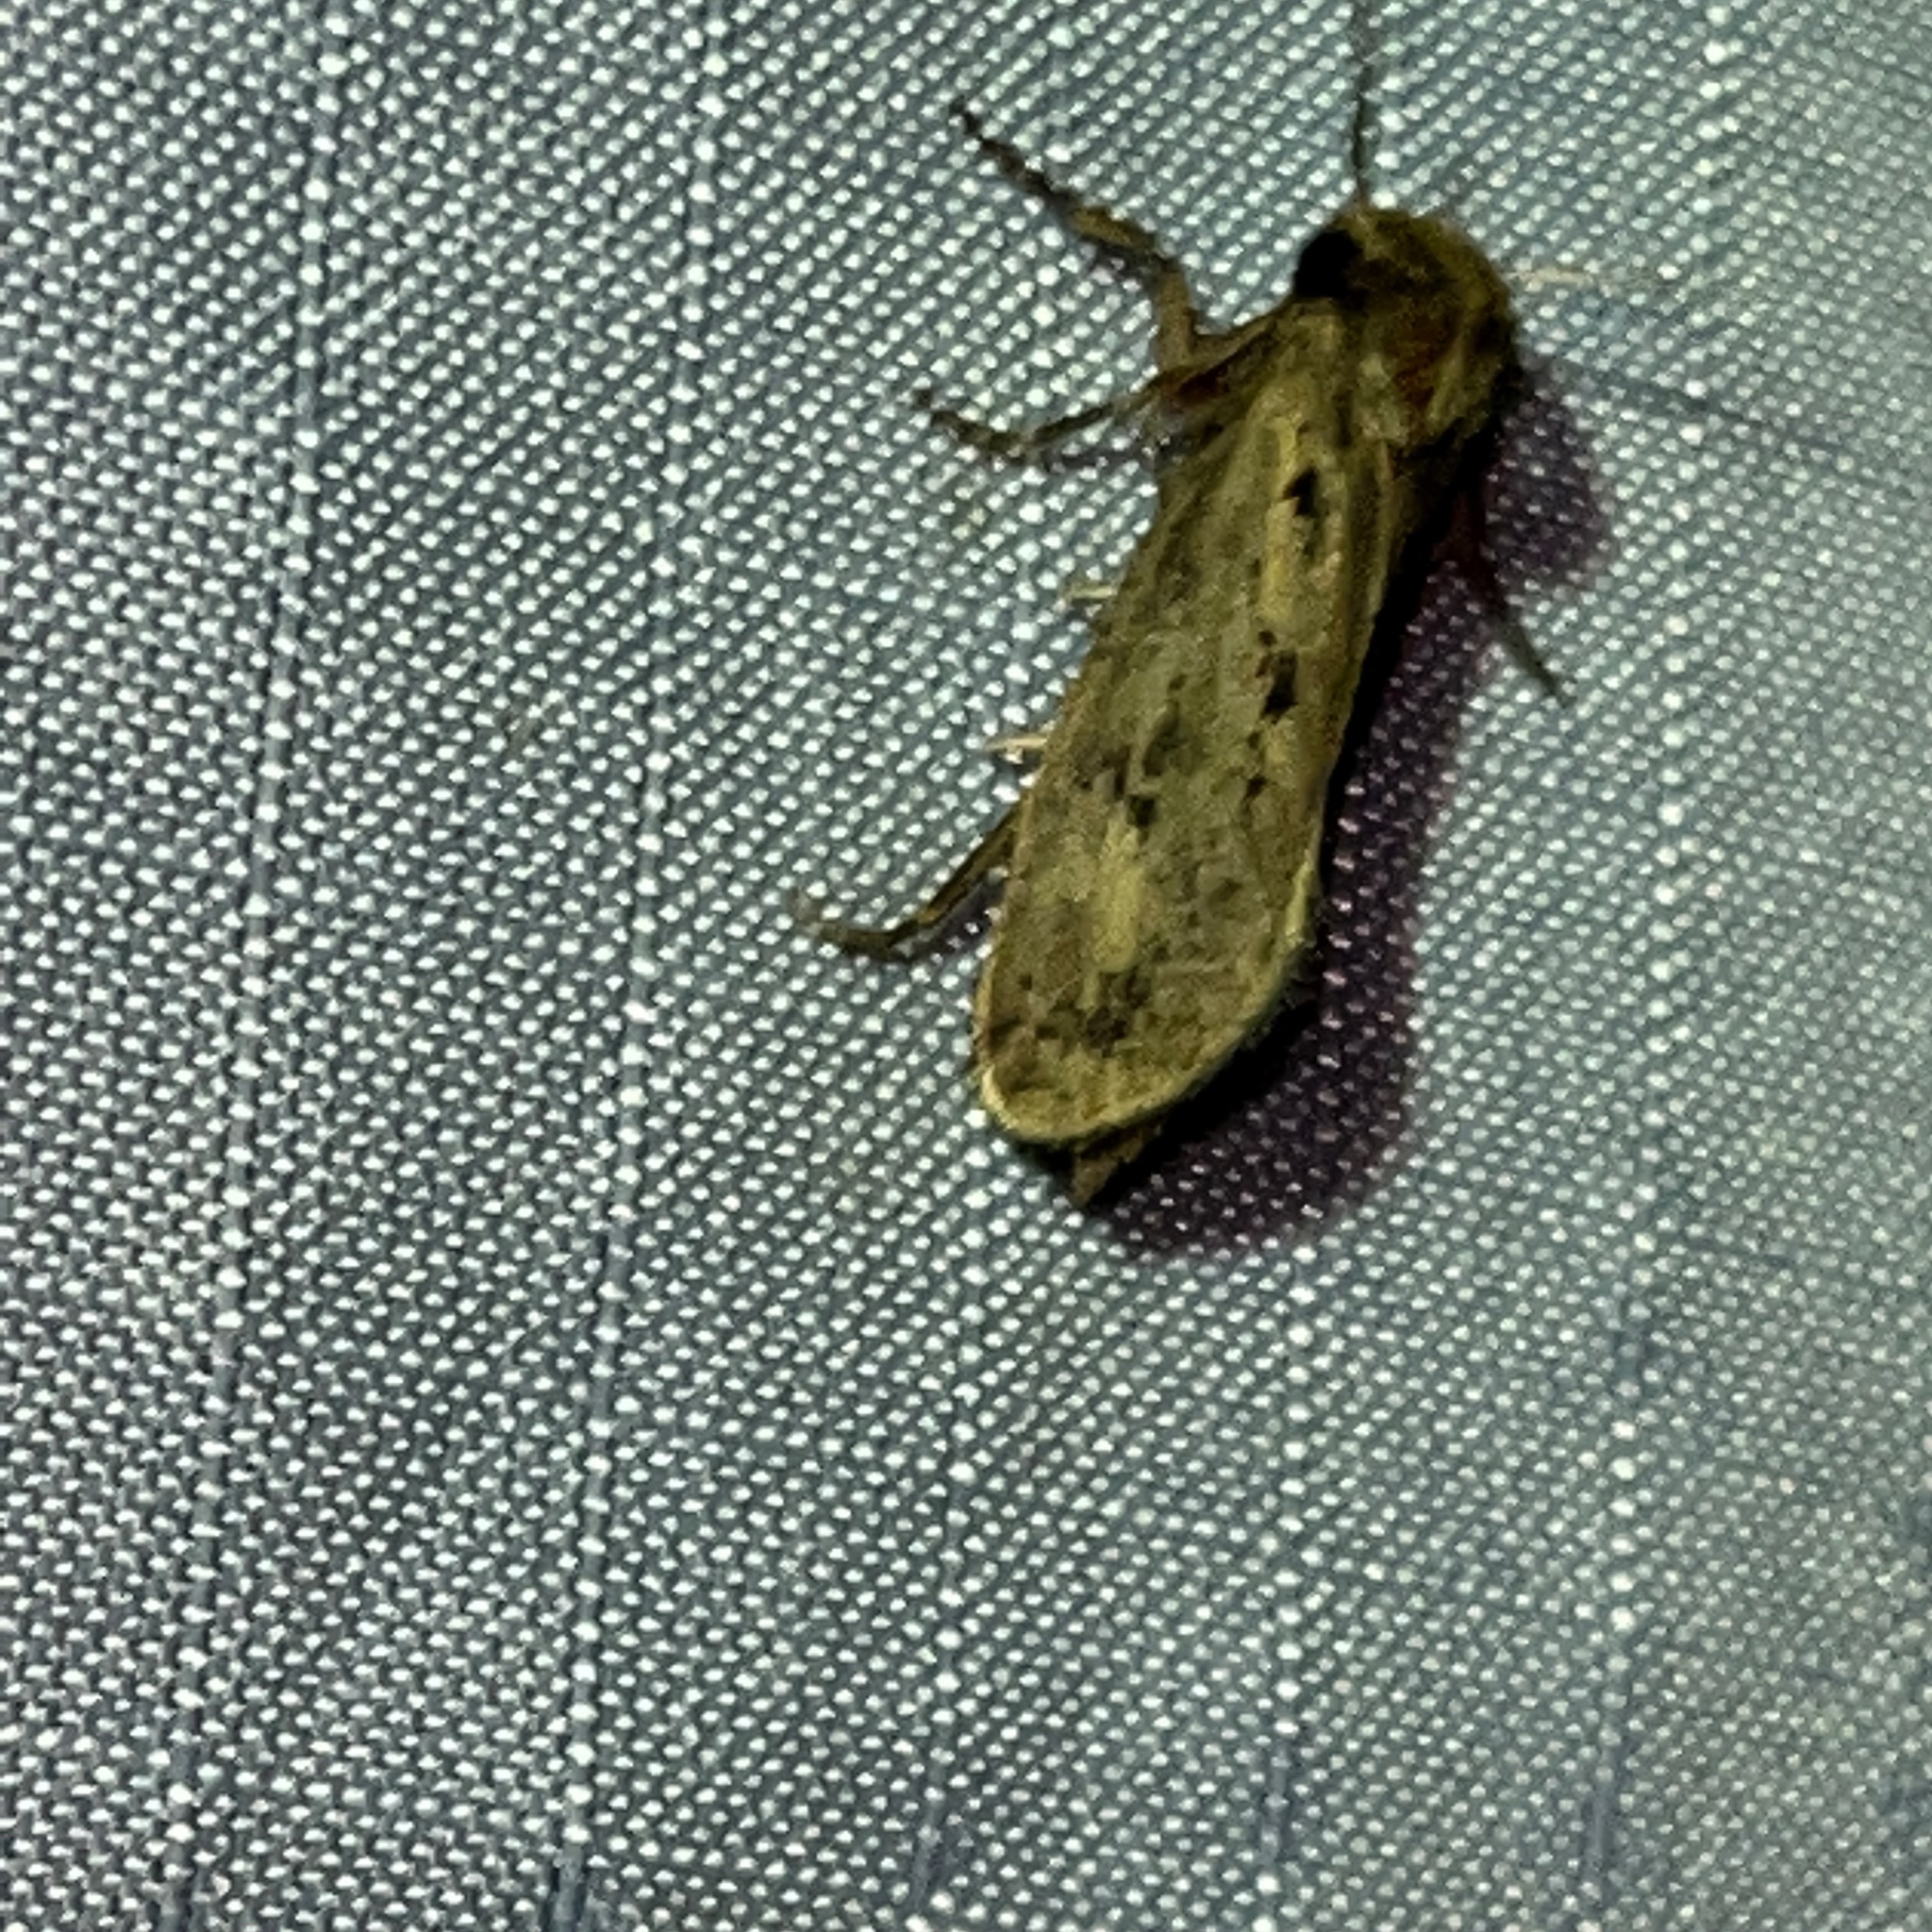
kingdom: Animalia
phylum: Arthropoda
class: Insecta
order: Lepidoptera
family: Tineidae
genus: Acrolophus
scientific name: Acrolophus popeanella
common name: Clemens' grass tubeworm moth
